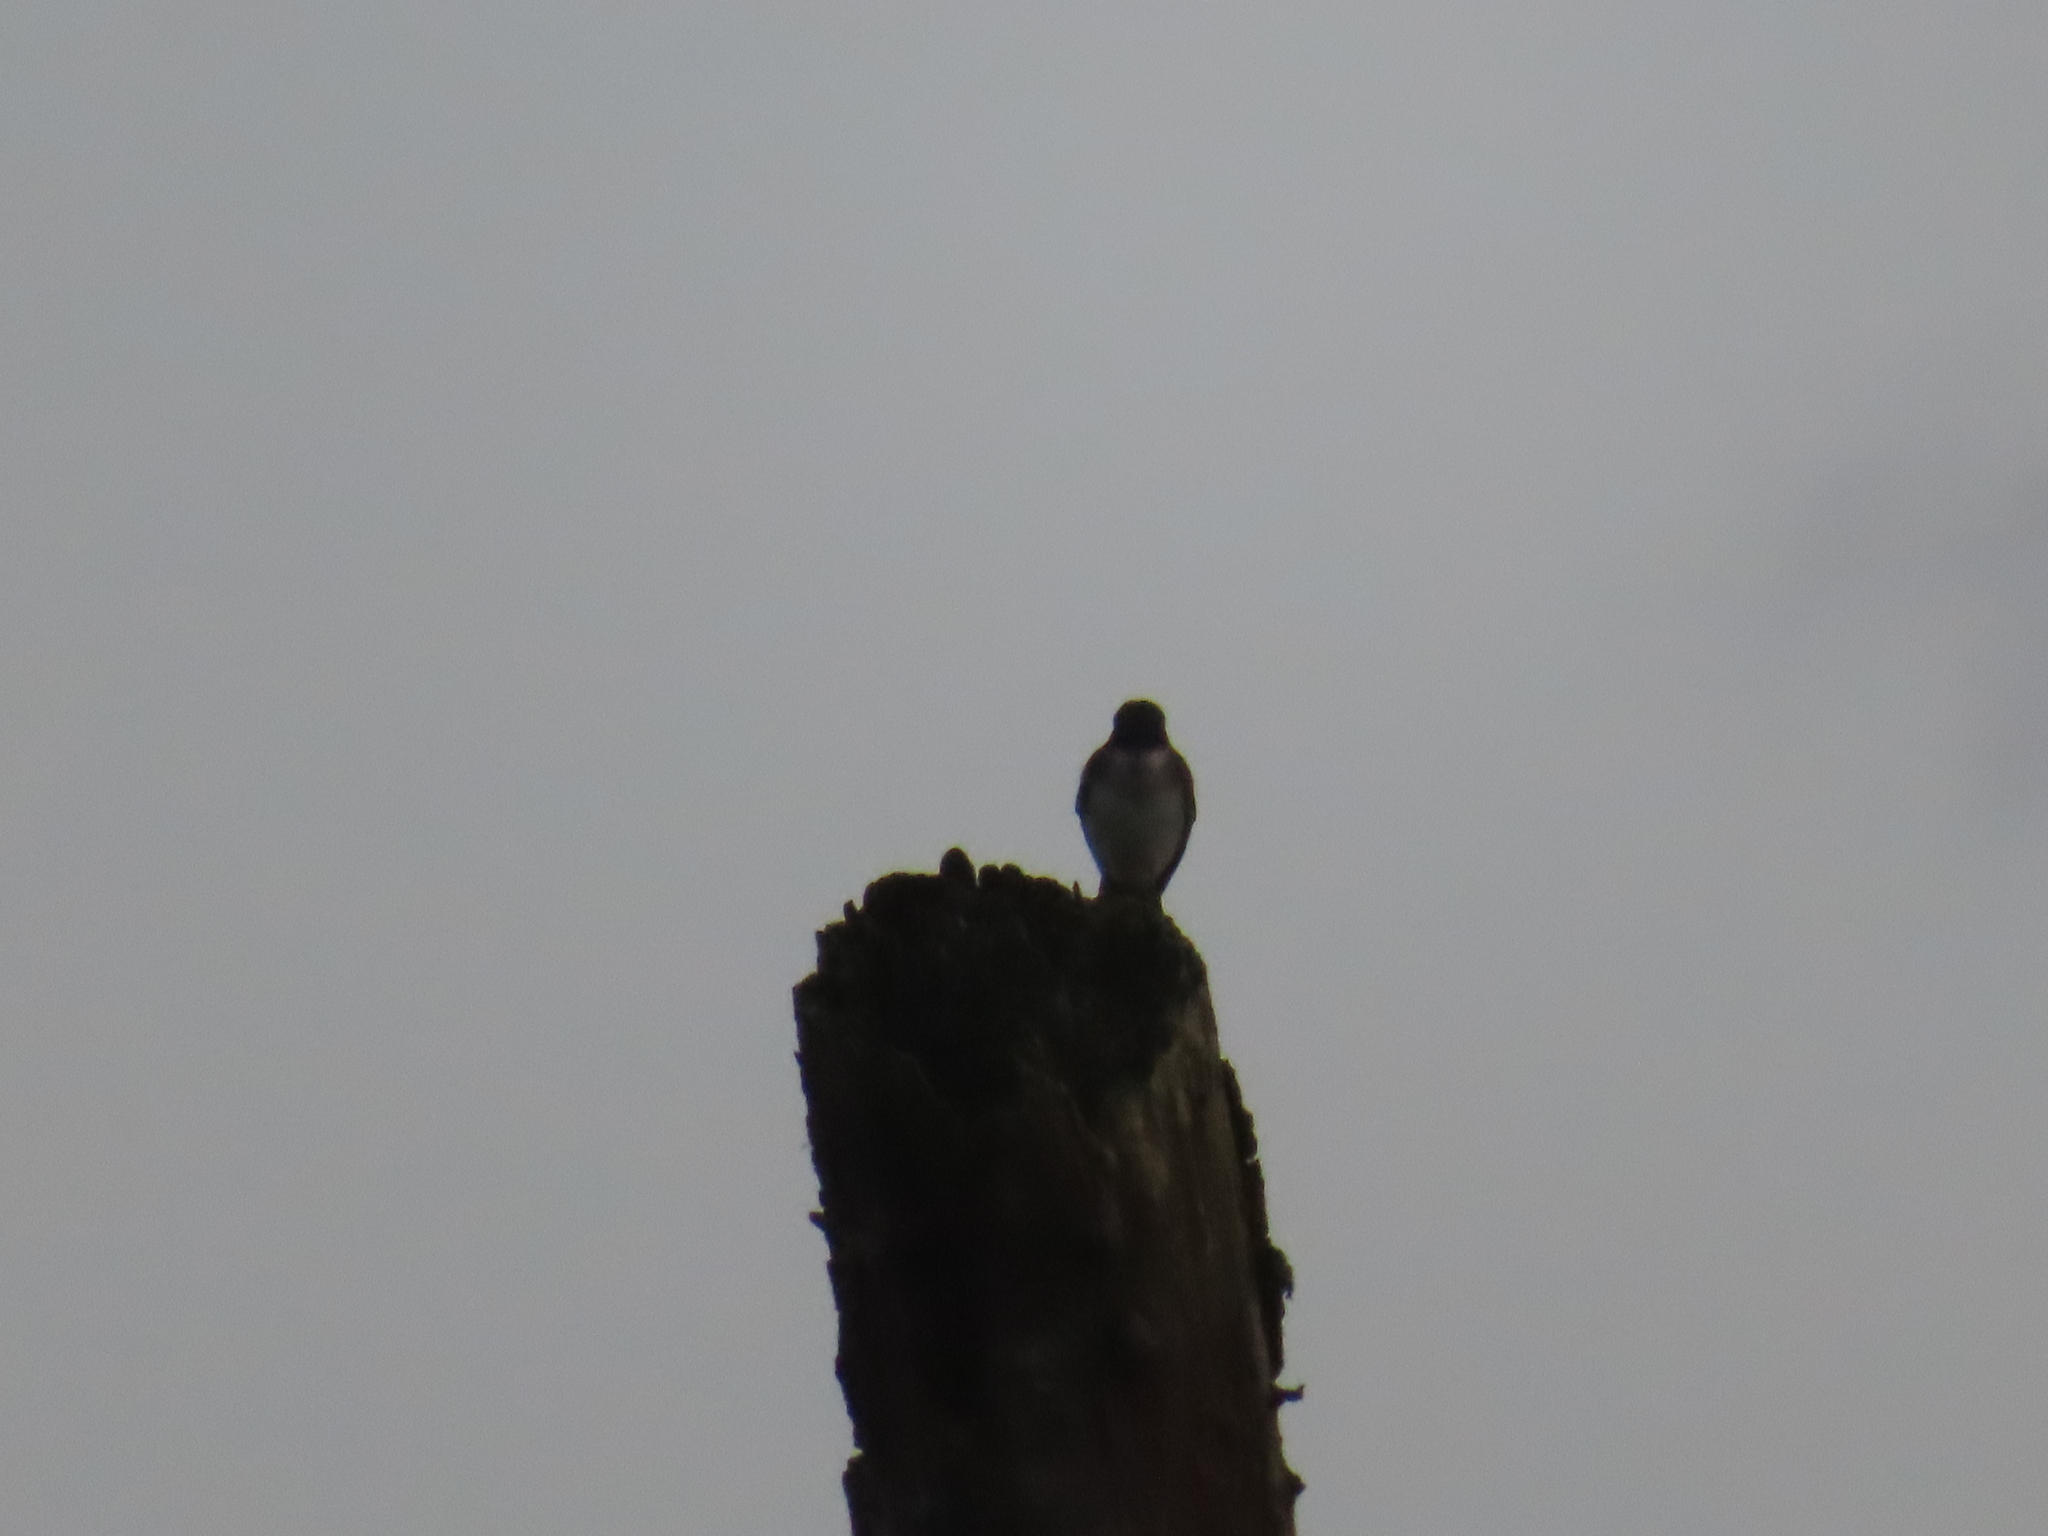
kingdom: Animalia
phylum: Chordata
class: Aves
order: Passeriformes
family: Tyrannidae
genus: Tyrannus
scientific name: Tyrannus tyrannus
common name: Eastern kingbird
